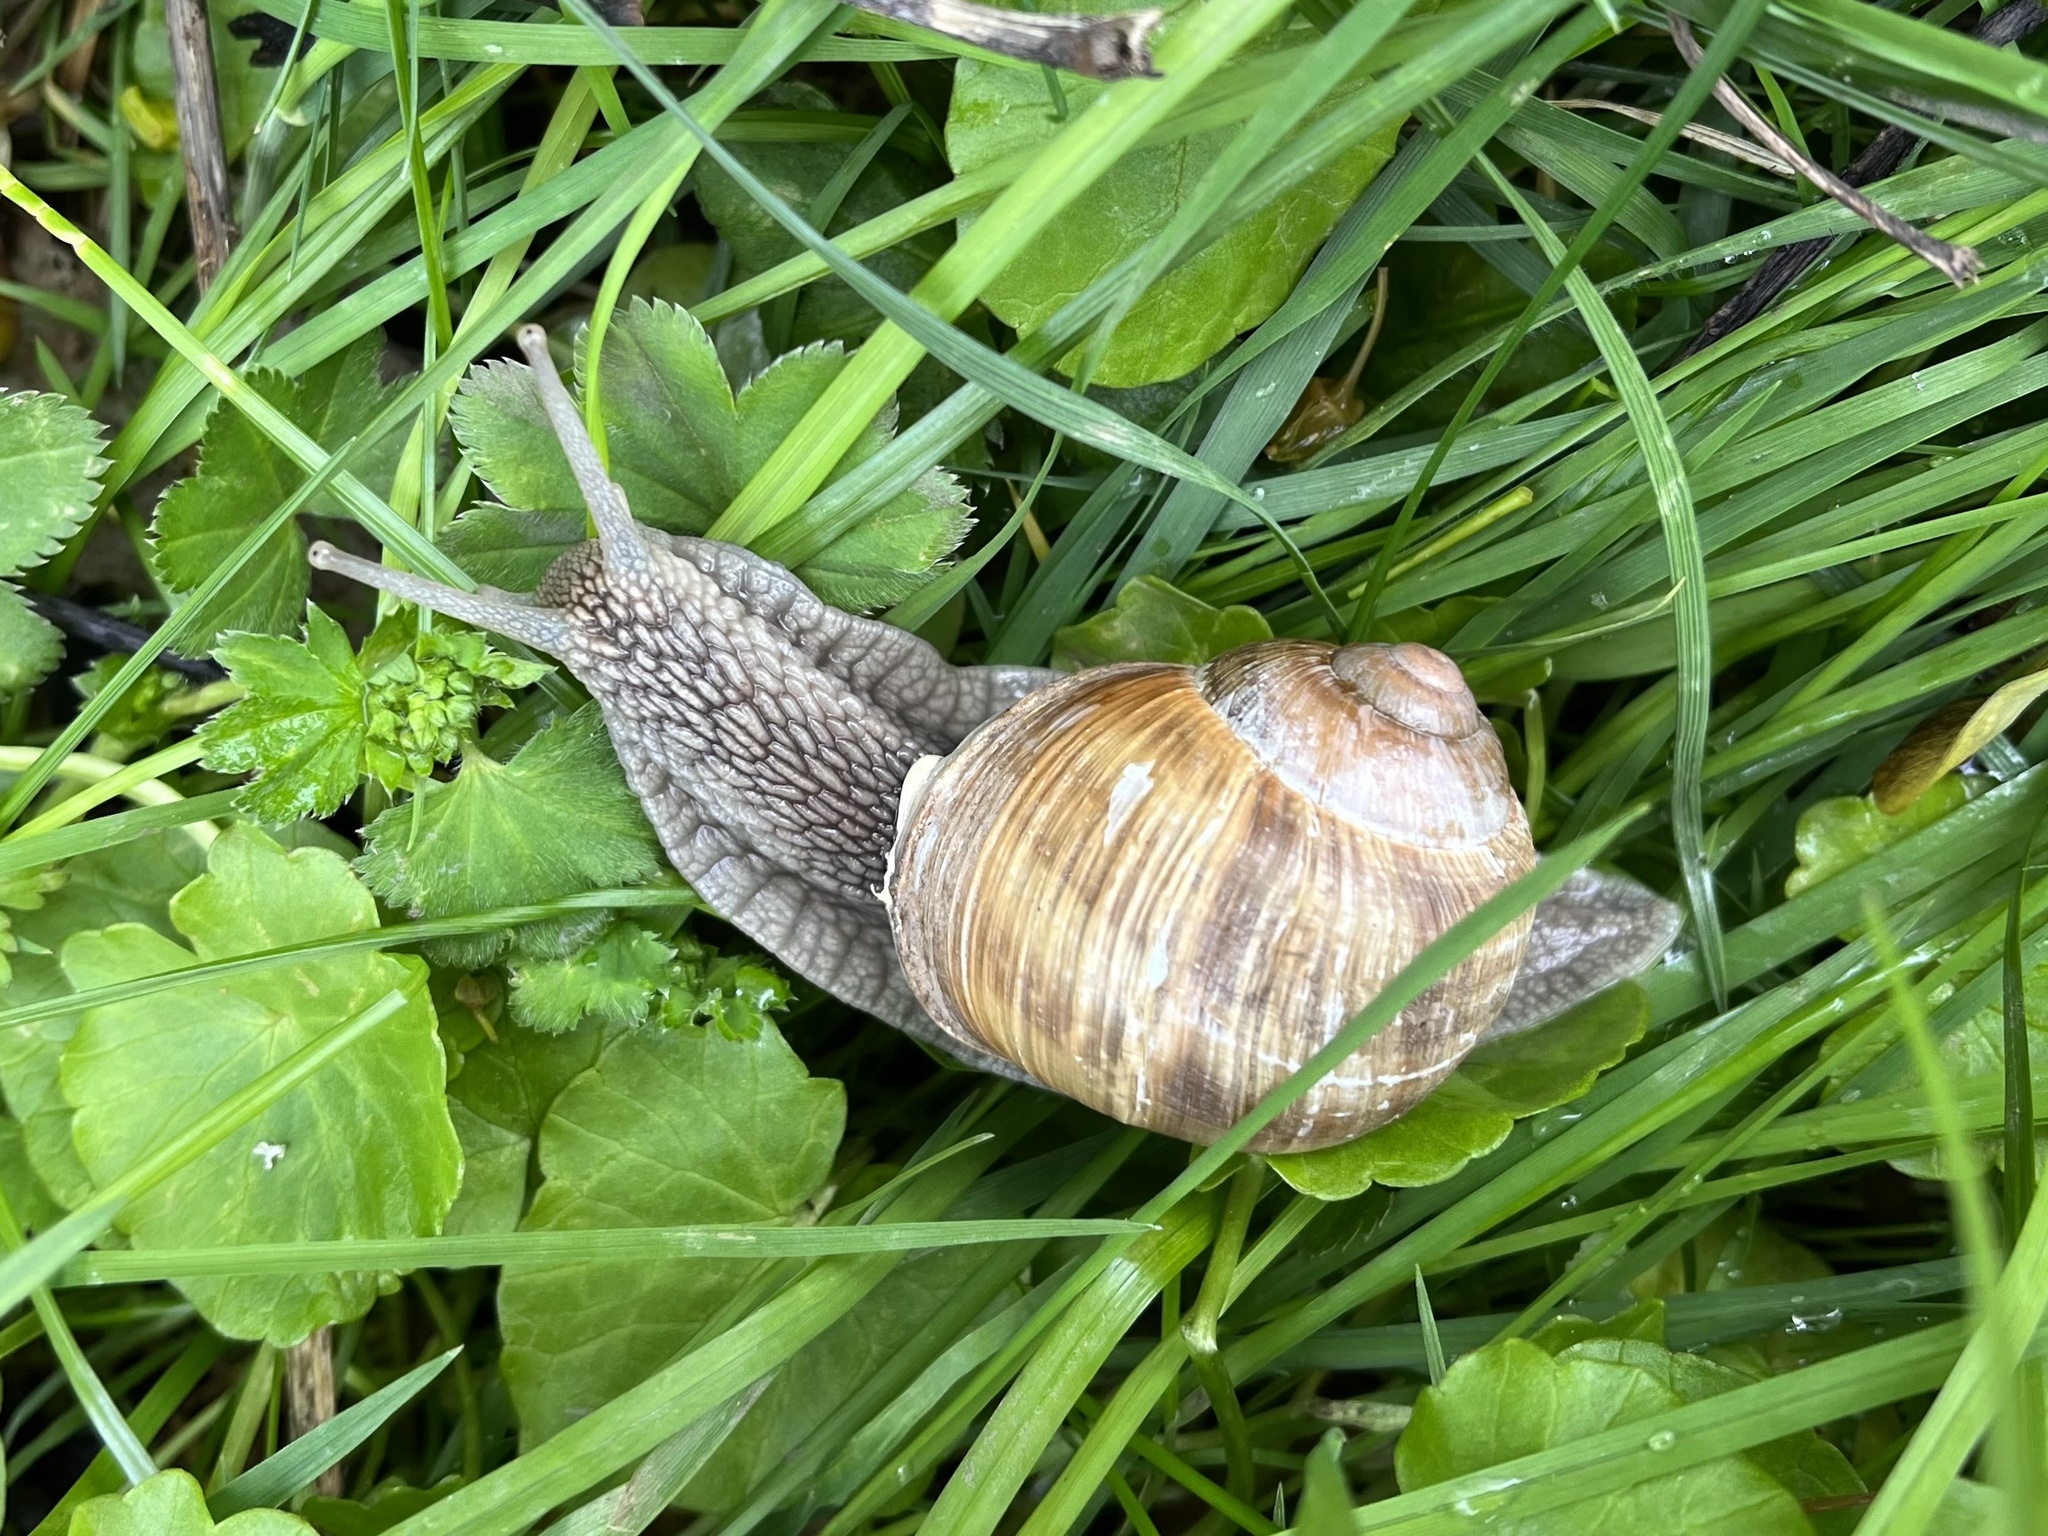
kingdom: Animalia
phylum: Mollusca
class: Gastropoda
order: Stylommatophora
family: Helicidae
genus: Helix
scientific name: Helix pomatia
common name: Roman snail
